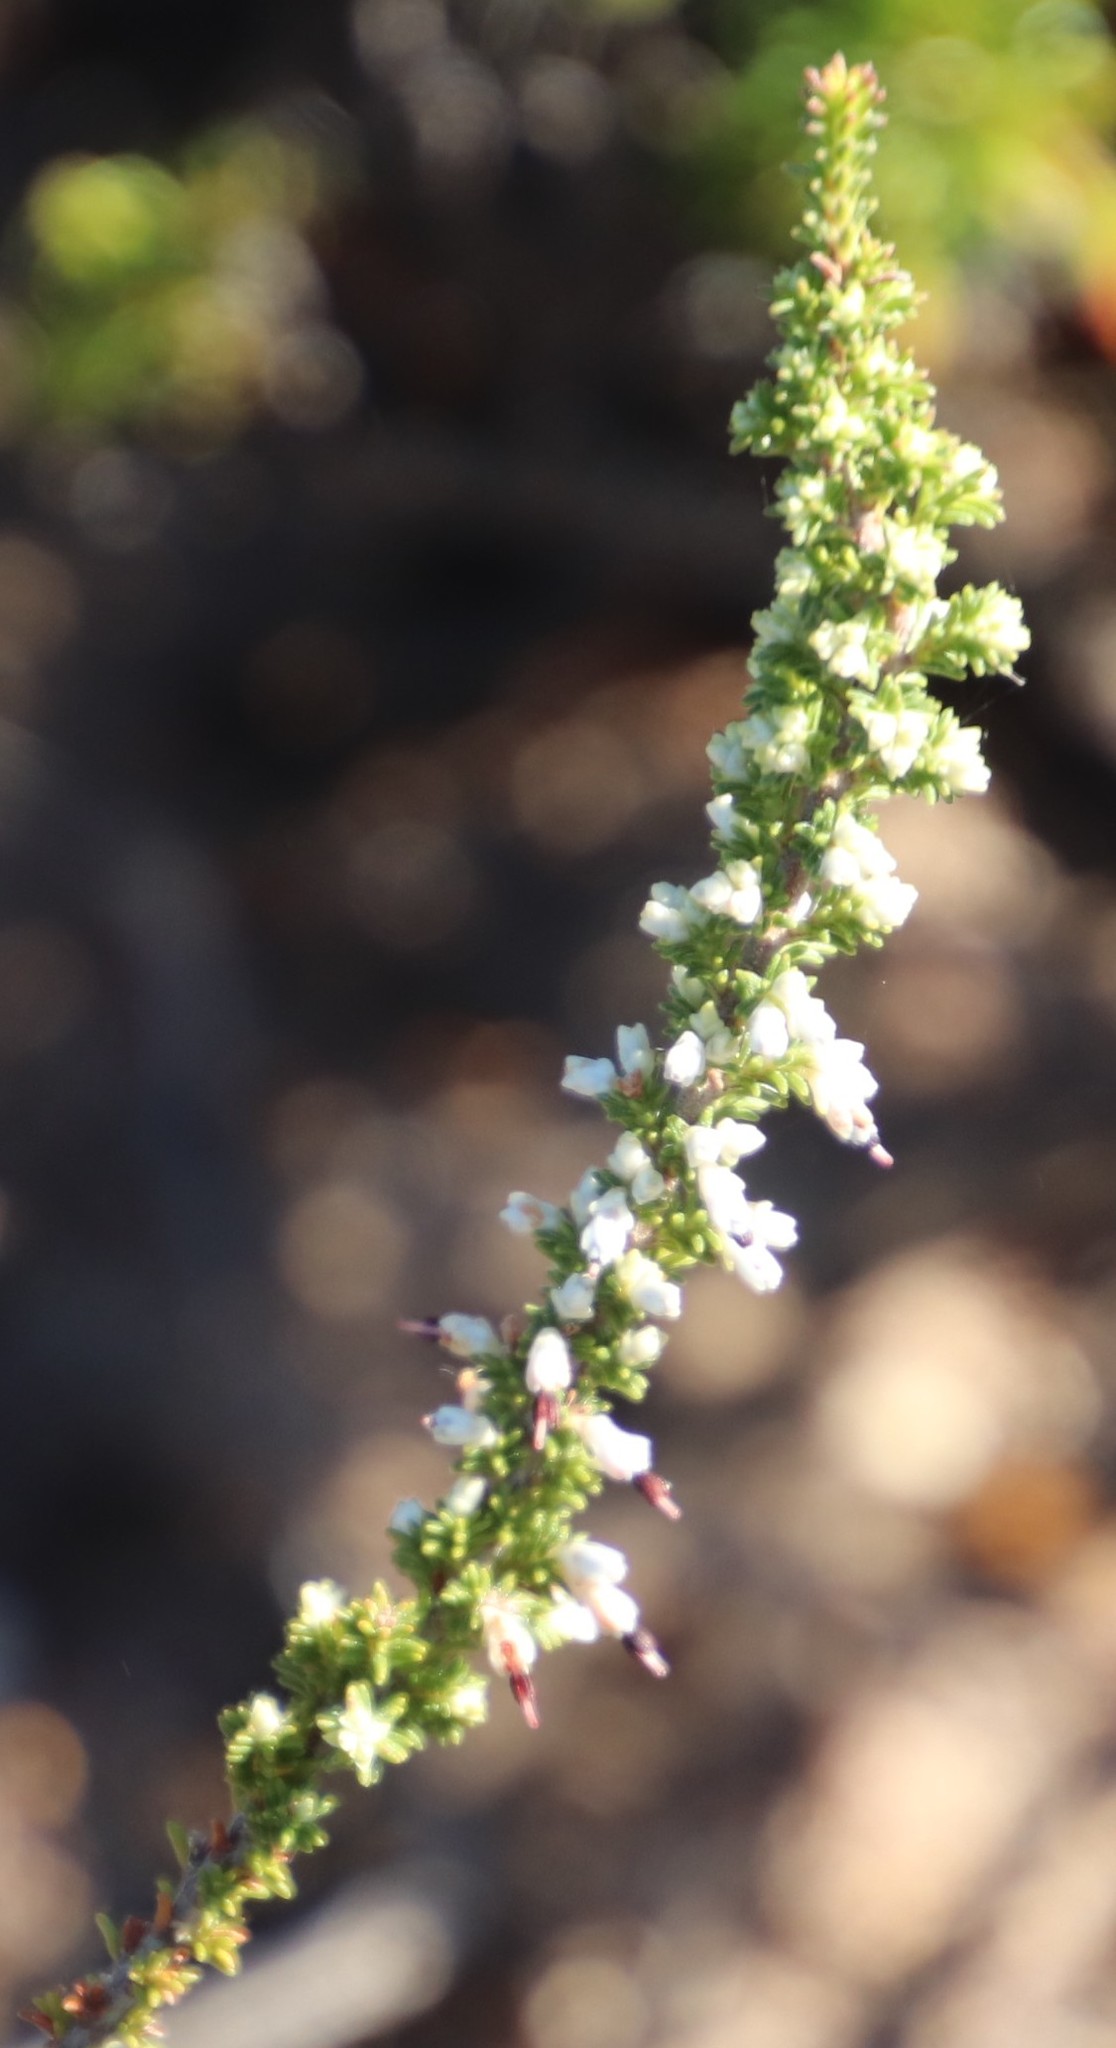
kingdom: Plantae
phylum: Tracheophyta
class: Magnoliopsida
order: Ericales
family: Ericaceae
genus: Erica
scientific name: Erica imbricata
